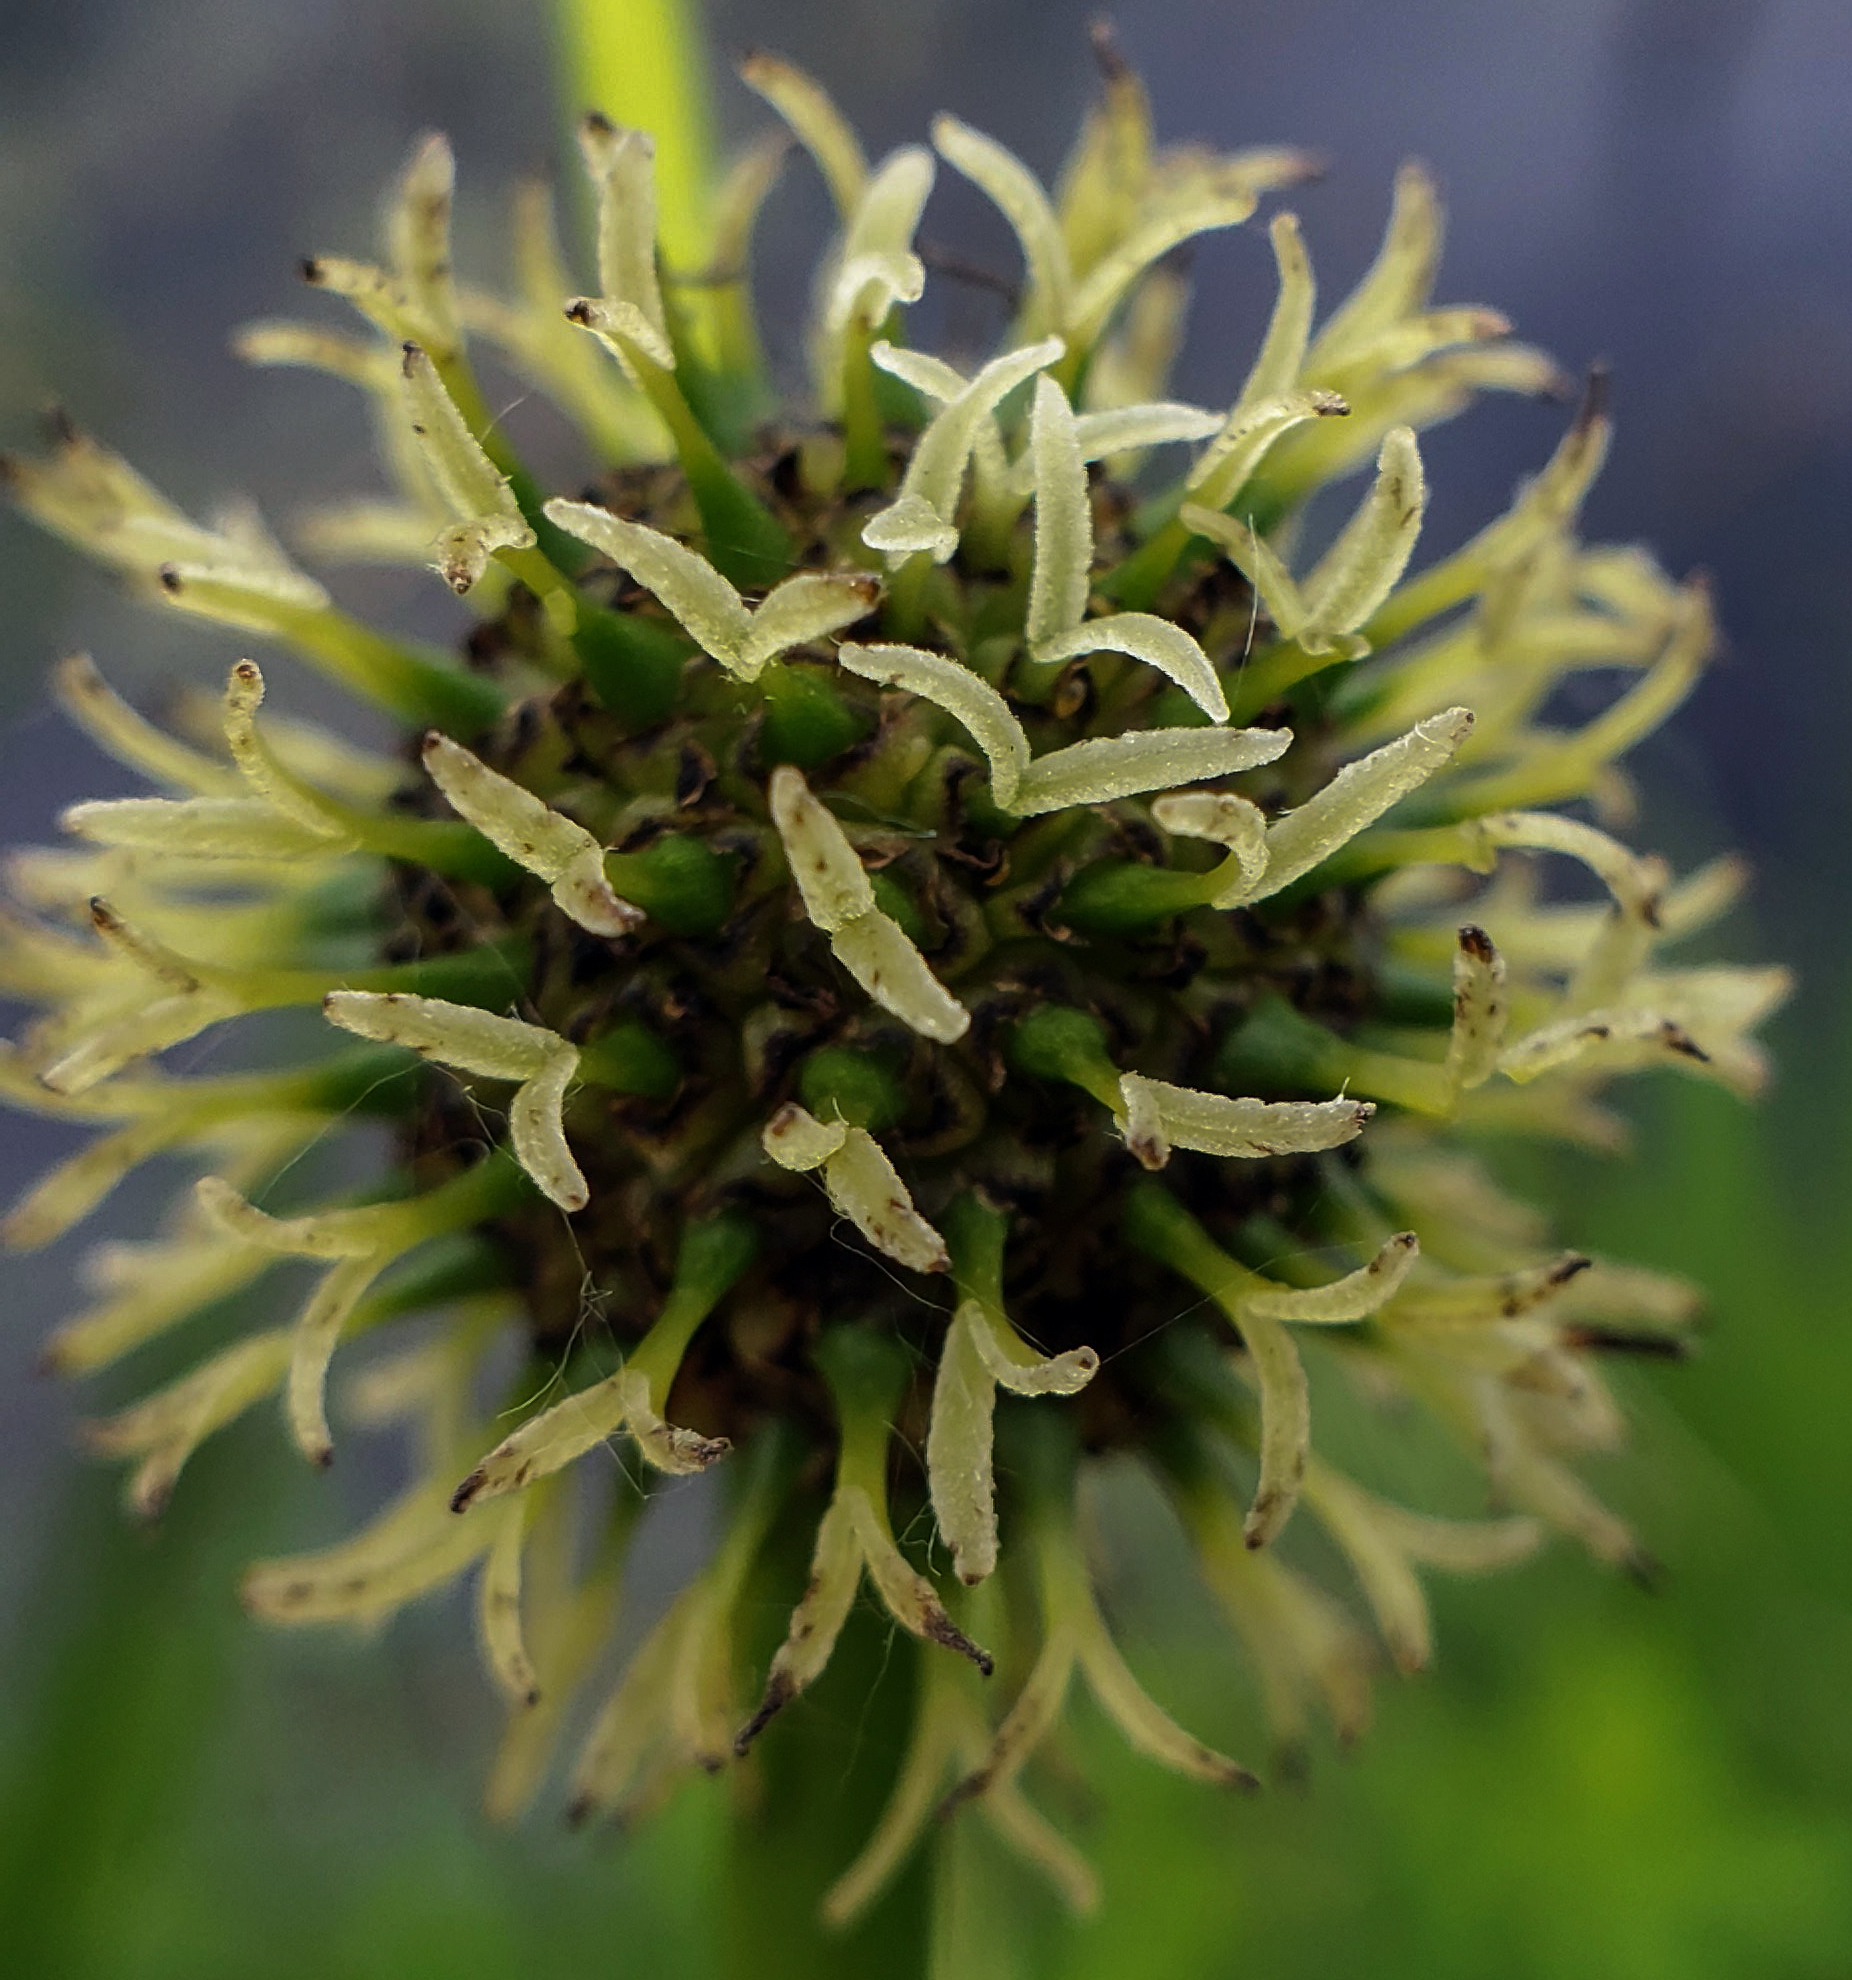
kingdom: Plantae
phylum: Tracheophyta
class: Liliopsida
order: Poales
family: Typhaceae
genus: Sparganium
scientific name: Sparganium eurycarpum
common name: Broad-fruited burreed
